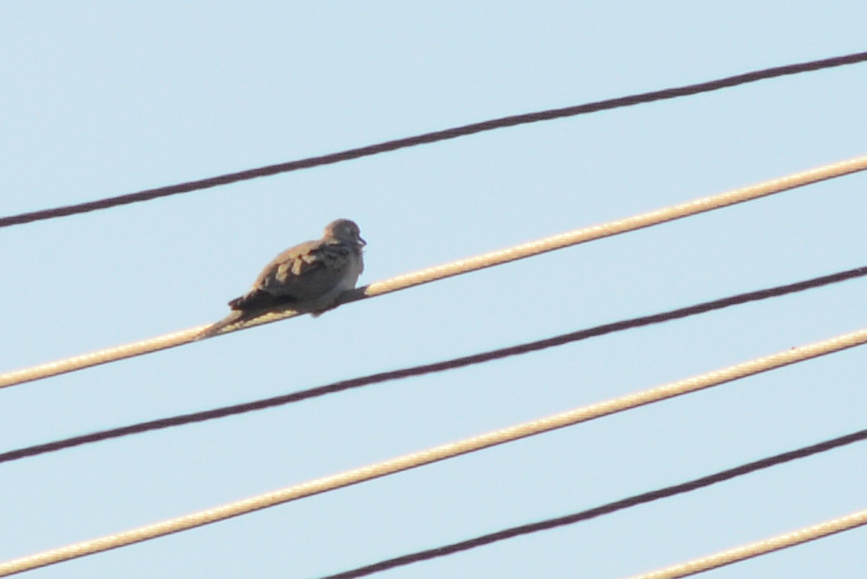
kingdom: Animalia
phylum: Chordata
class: Aves
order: Columbiformes
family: Columbidae
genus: Zenaida
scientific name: Zenaida macroura
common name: Mourning dove
